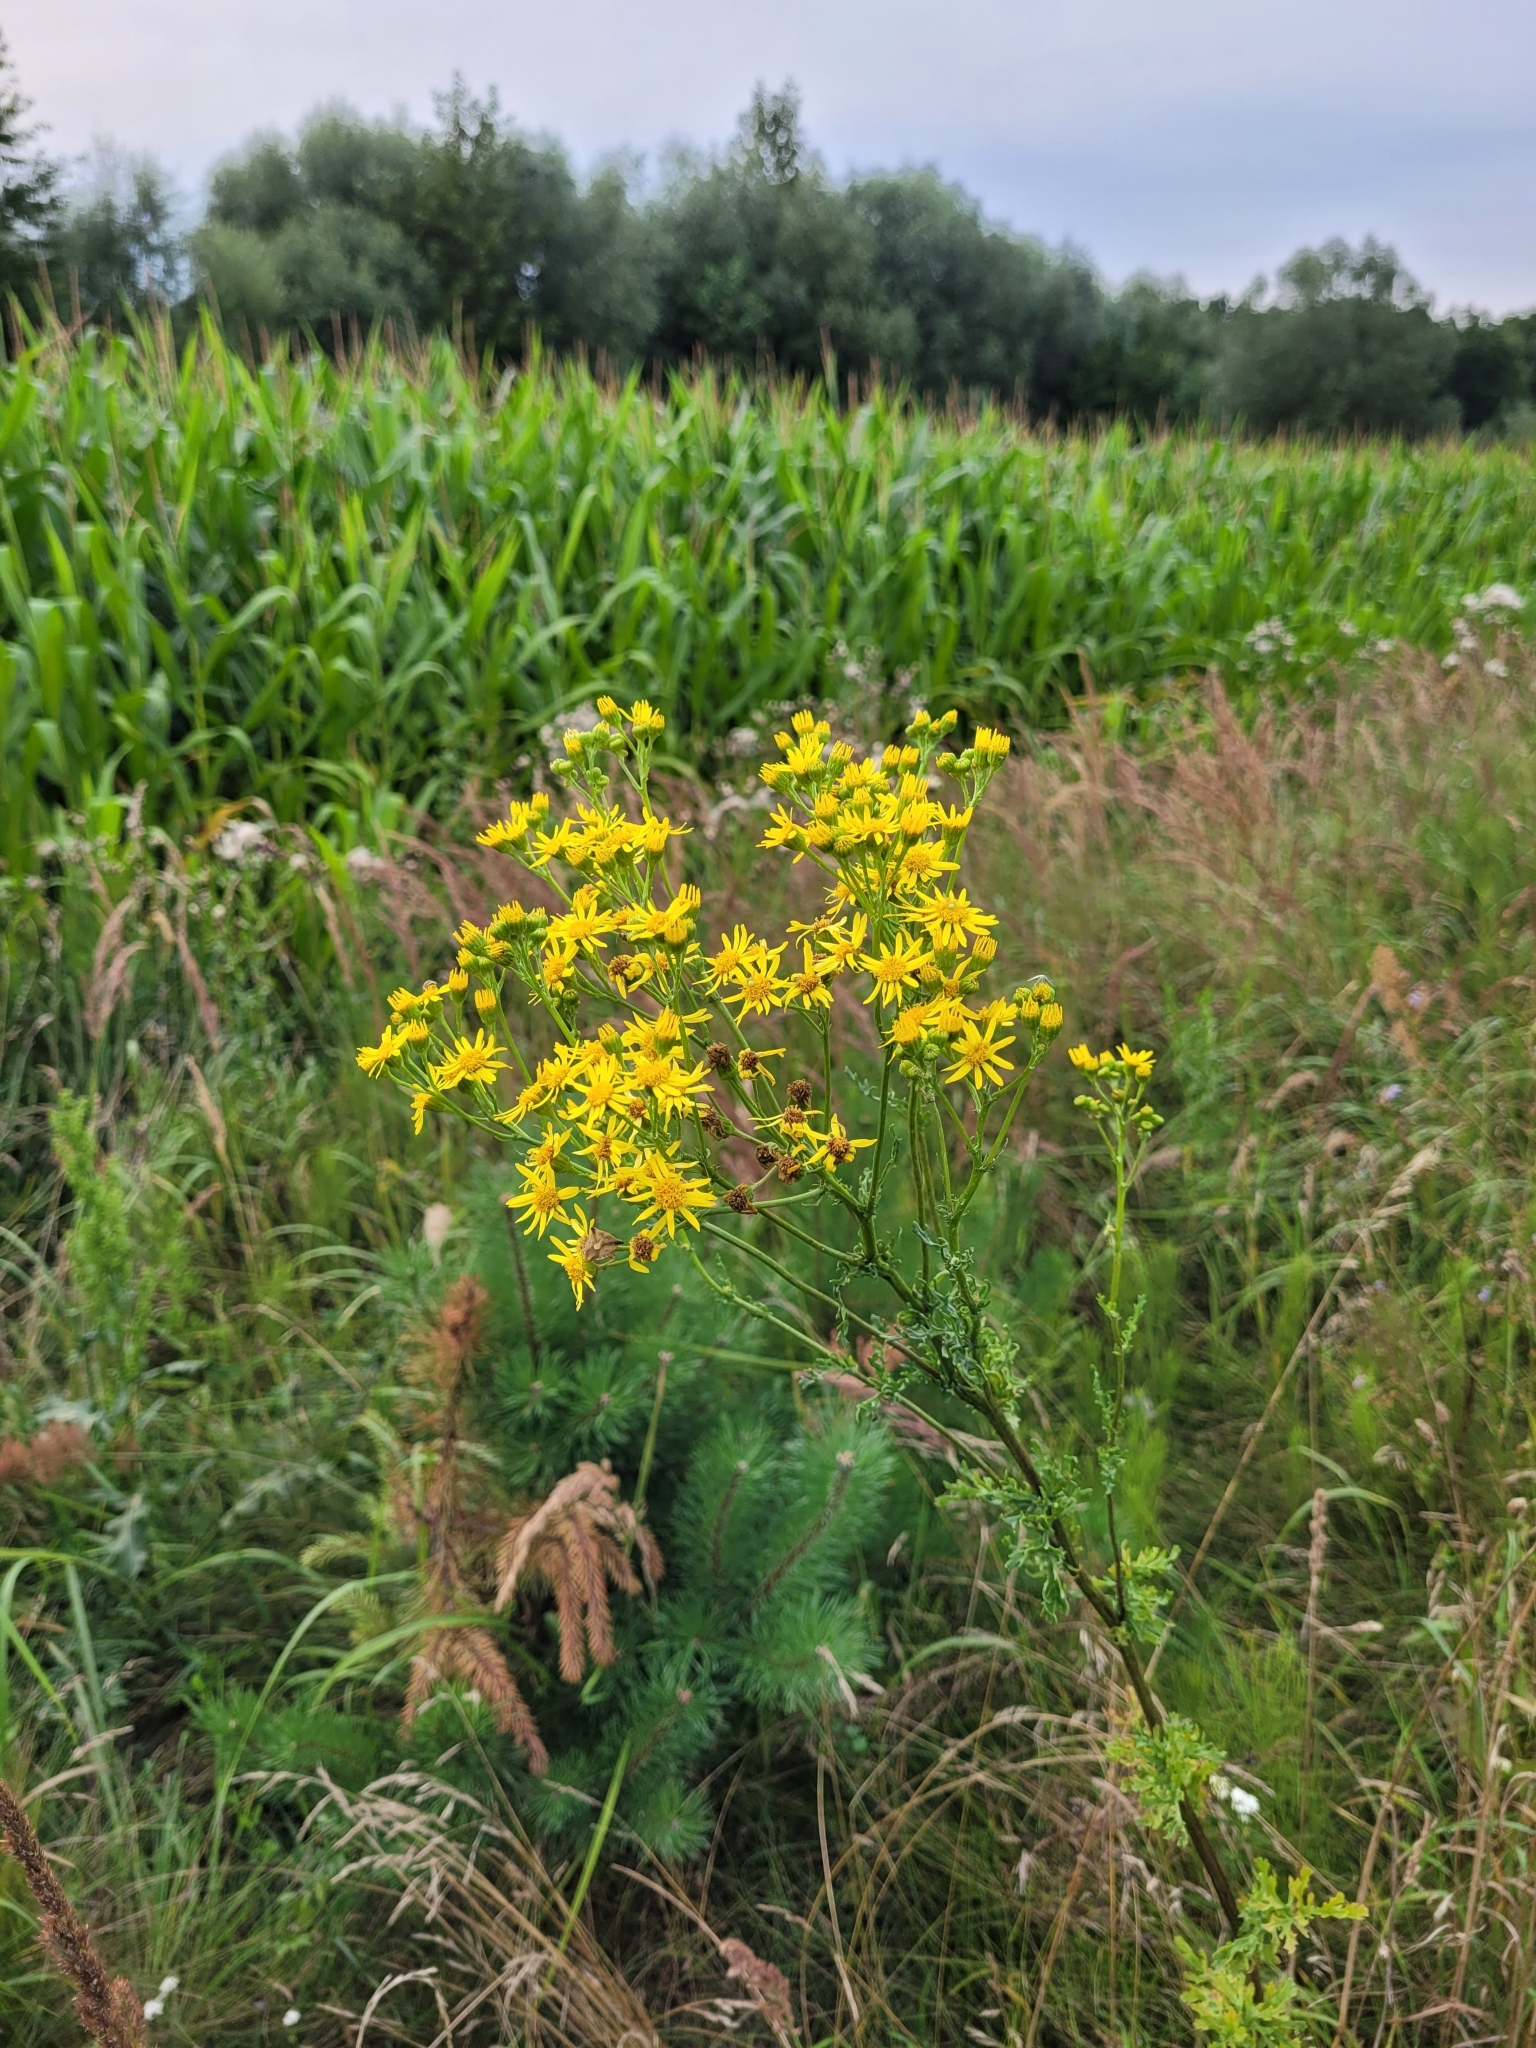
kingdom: Plantae
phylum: Tracheophyta
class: Magnoliopsida
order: Asterales
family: Asteraceae
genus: Solidago
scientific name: Solidago virgaurea
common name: Goldenrod
